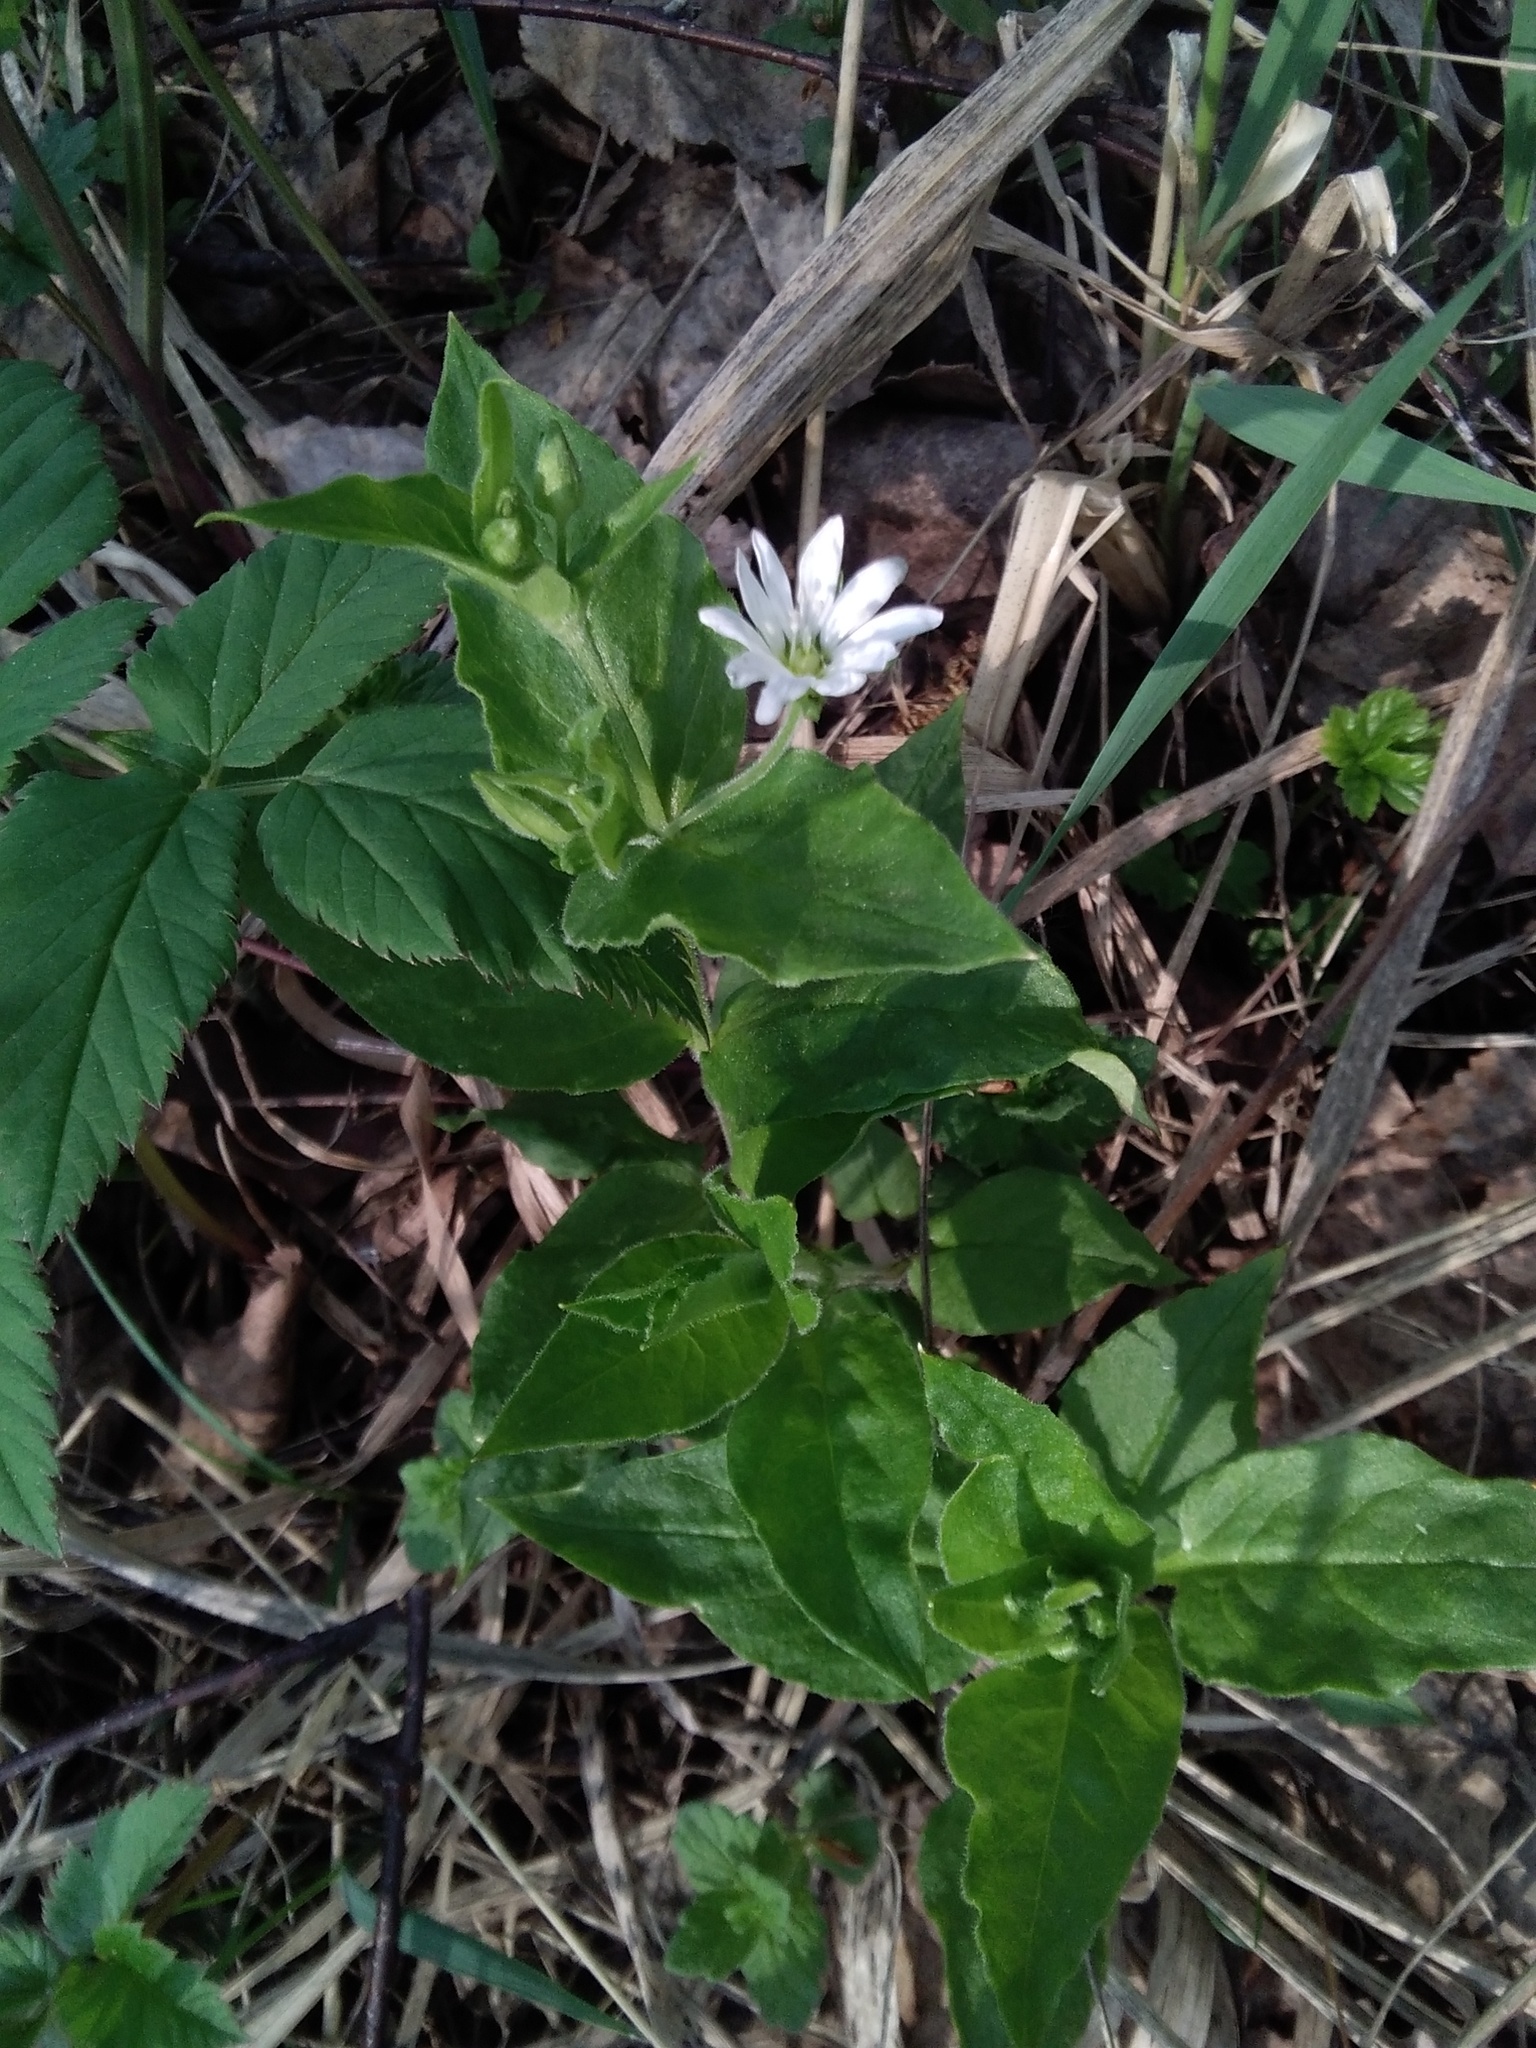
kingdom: Plantae
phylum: Tracheophyta
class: Magnoliopsida
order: Caryophyllales
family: Caryophyllaceae
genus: Stellaria
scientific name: Stellaria bungeana
